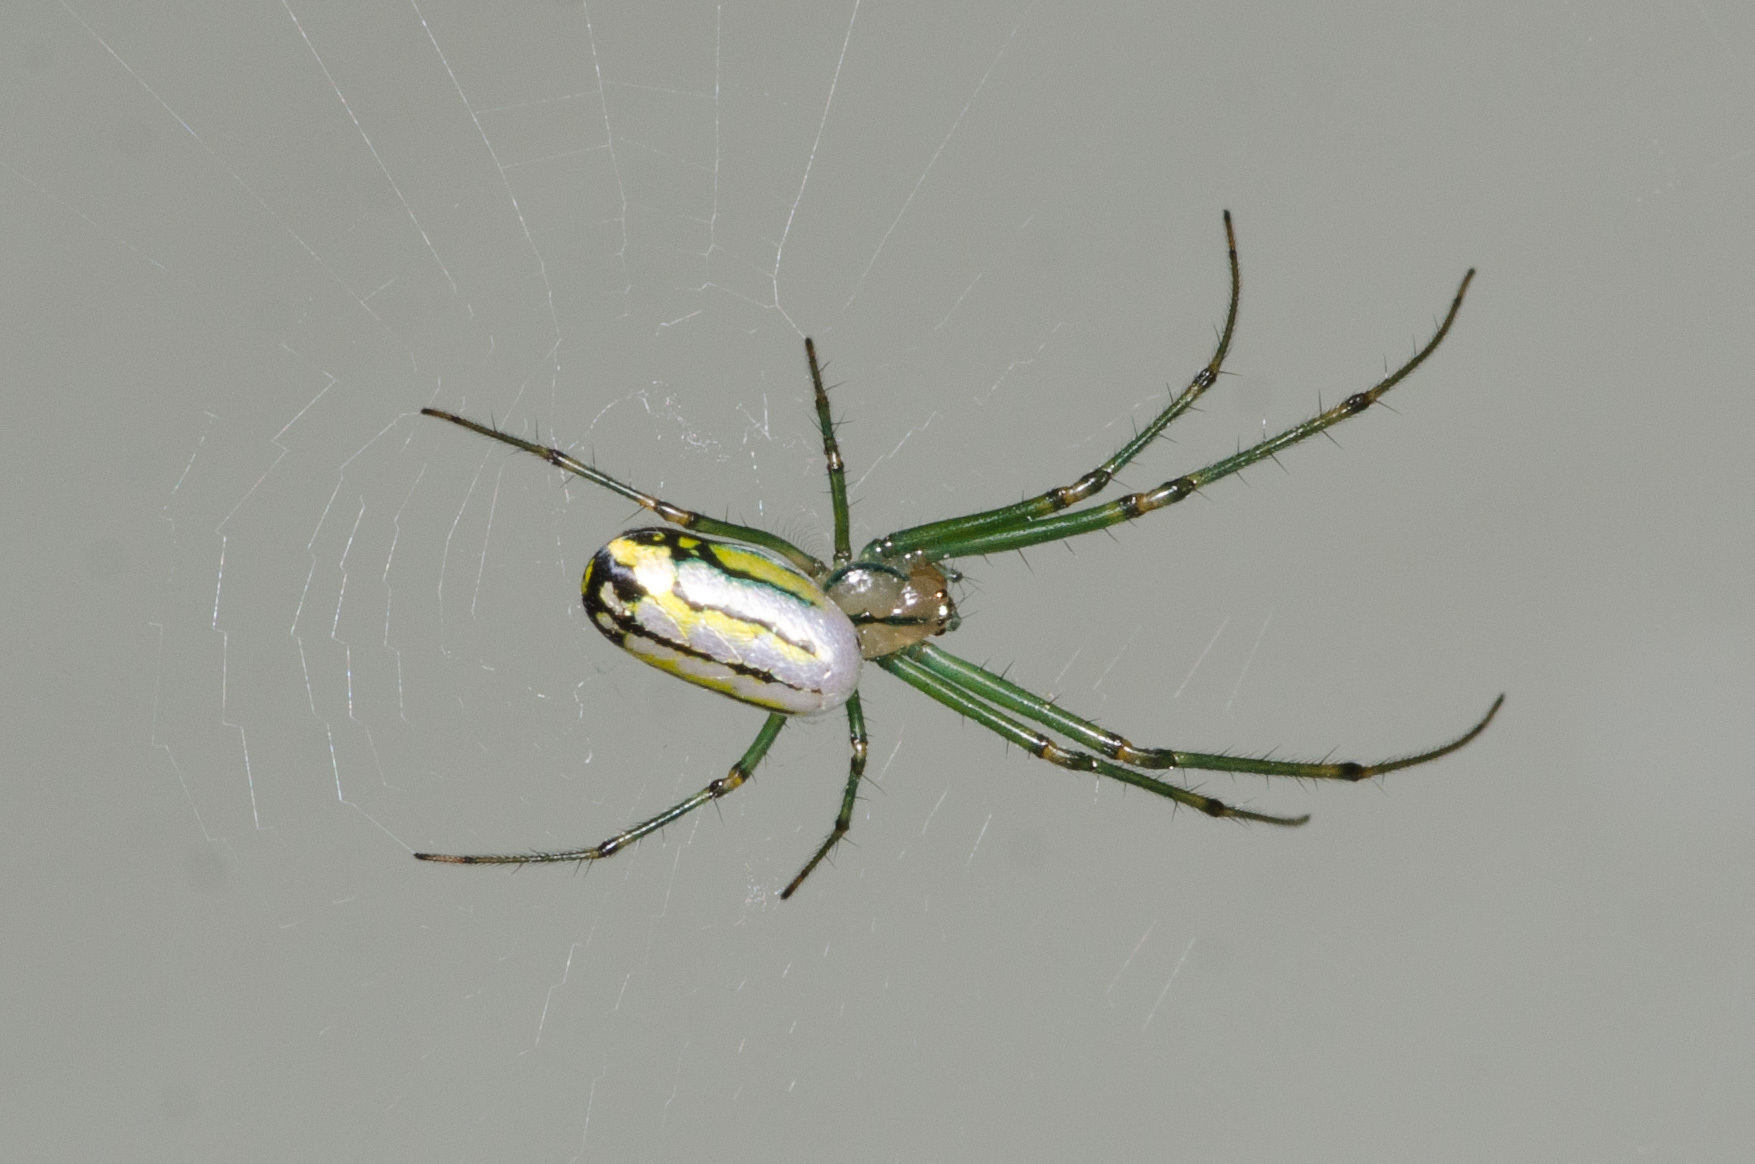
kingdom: Animalia
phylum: Arthropoda
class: Arachnida
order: Araneae
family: Tetragnathidae
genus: Leucauge
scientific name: Leucauge venusta
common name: Longjawed orb weavers
